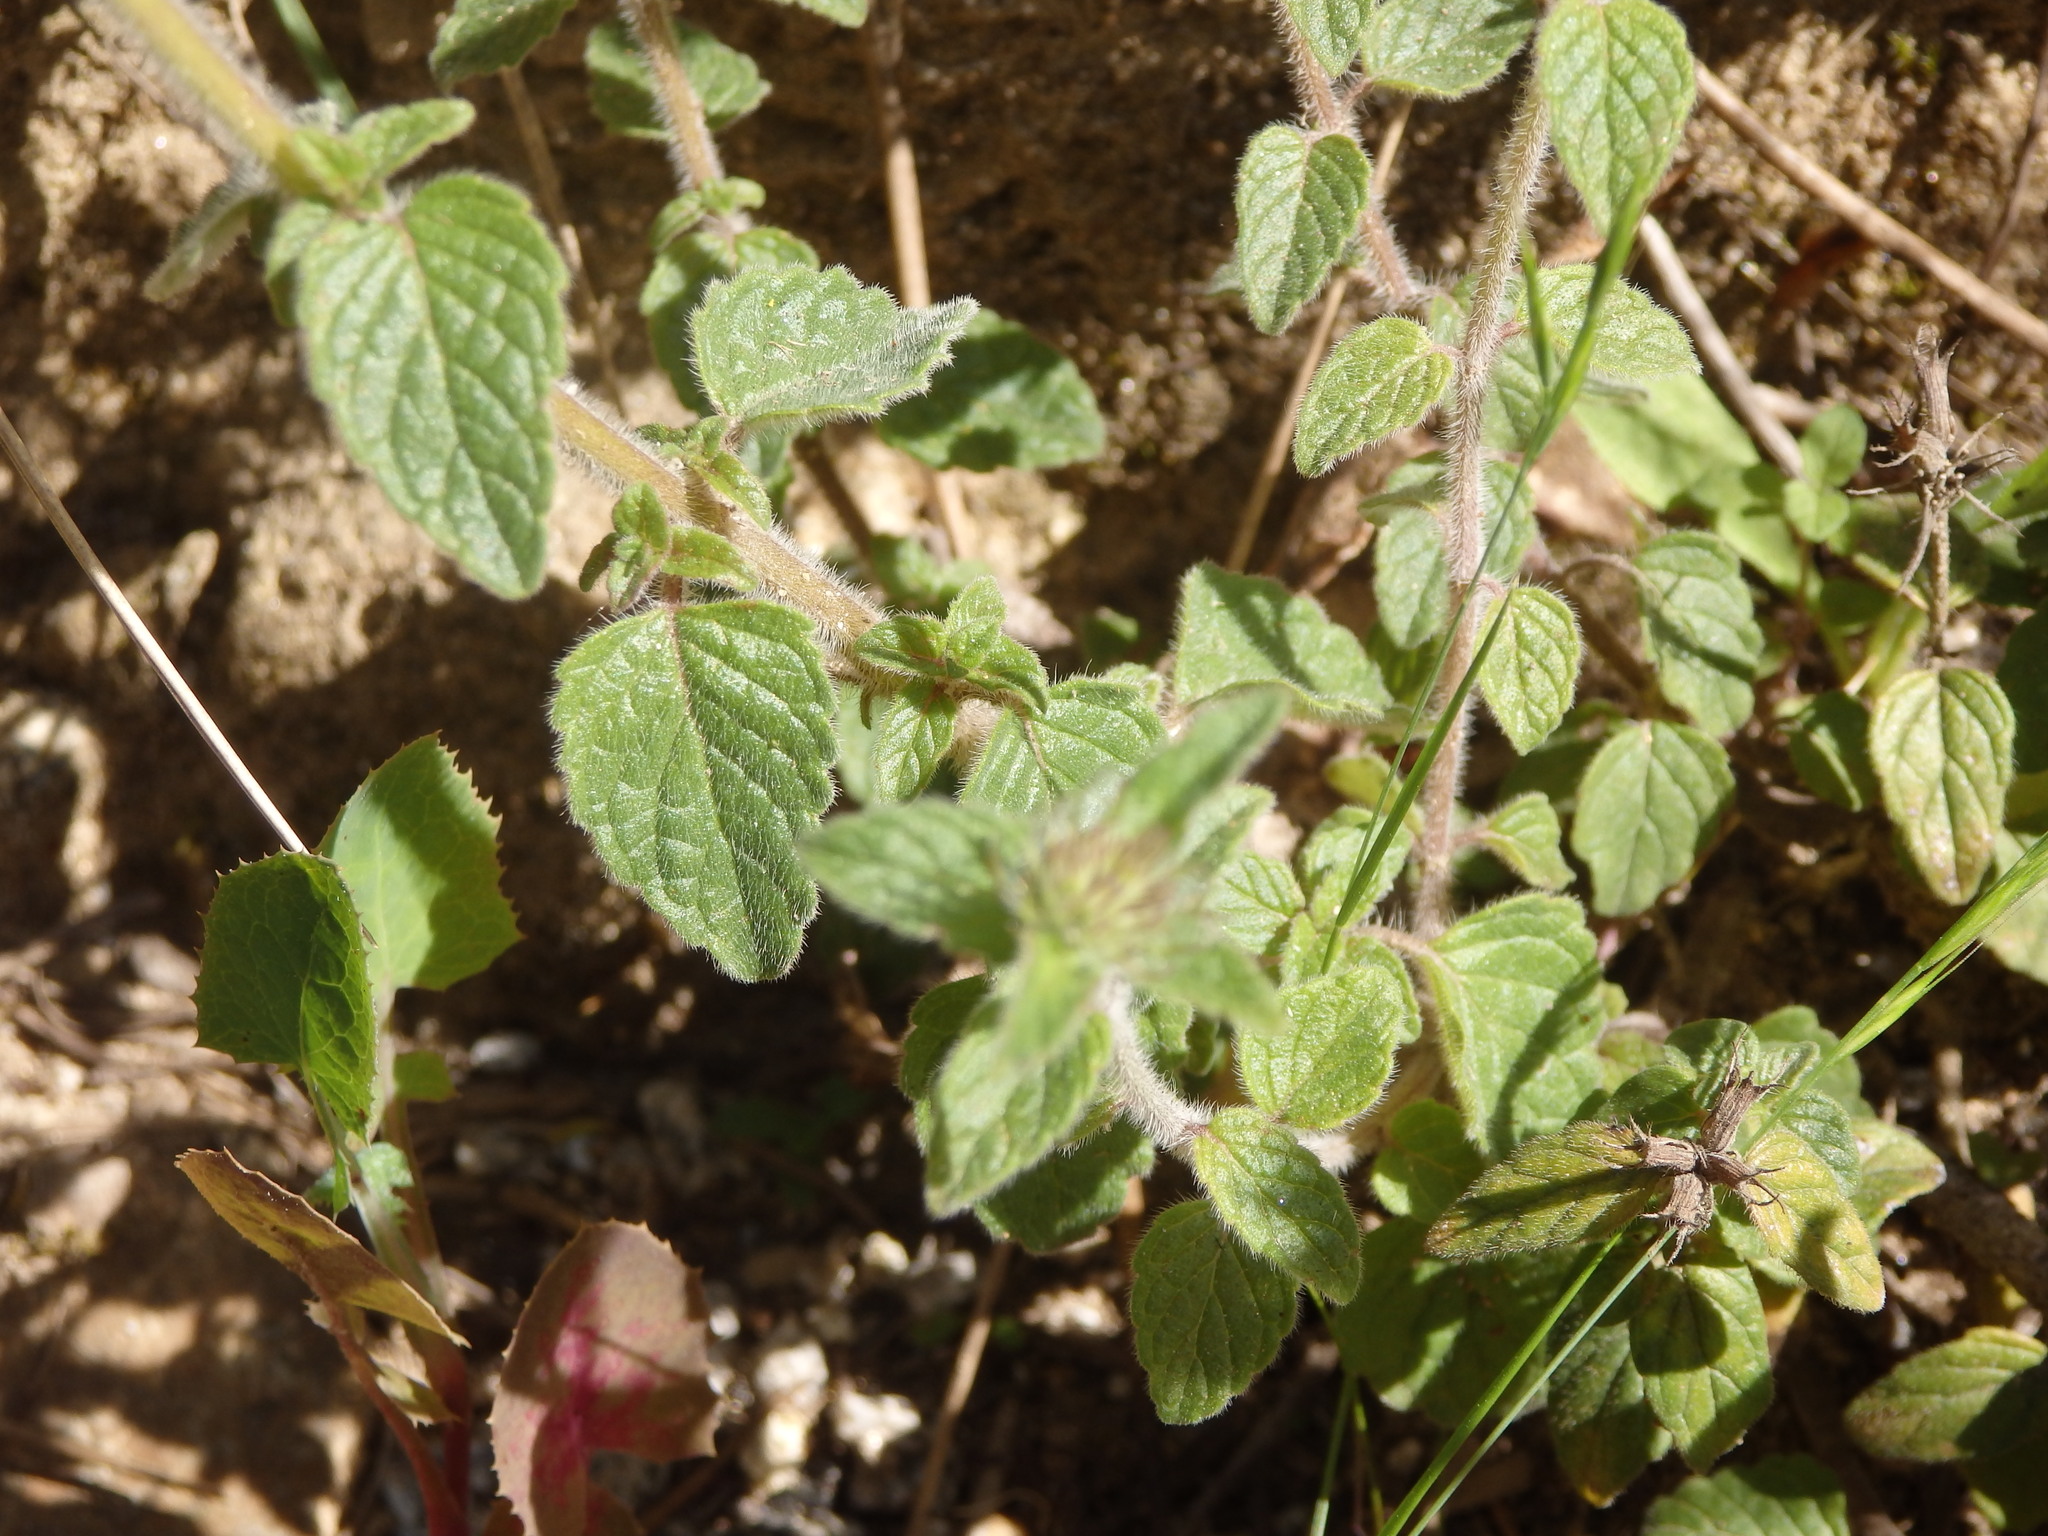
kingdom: Plantae
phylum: Tracheophyta
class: Magnoliopsida
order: Lamiales
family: Lamiaceae
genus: Clinopodium
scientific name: Clinopodium vulgare
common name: Wild basil
